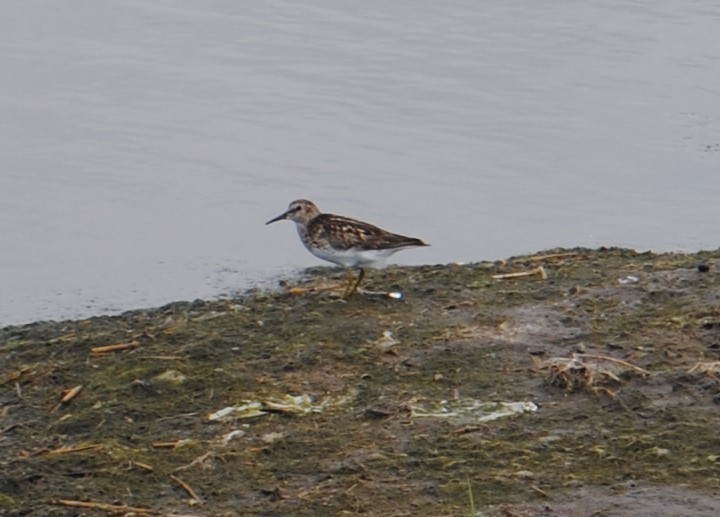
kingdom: Animalia
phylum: Chordata
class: Aves
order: Charadriiformes
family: Scolopacidae
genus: Calidris
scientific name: Calidris minutilla
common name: Least sandpiper
